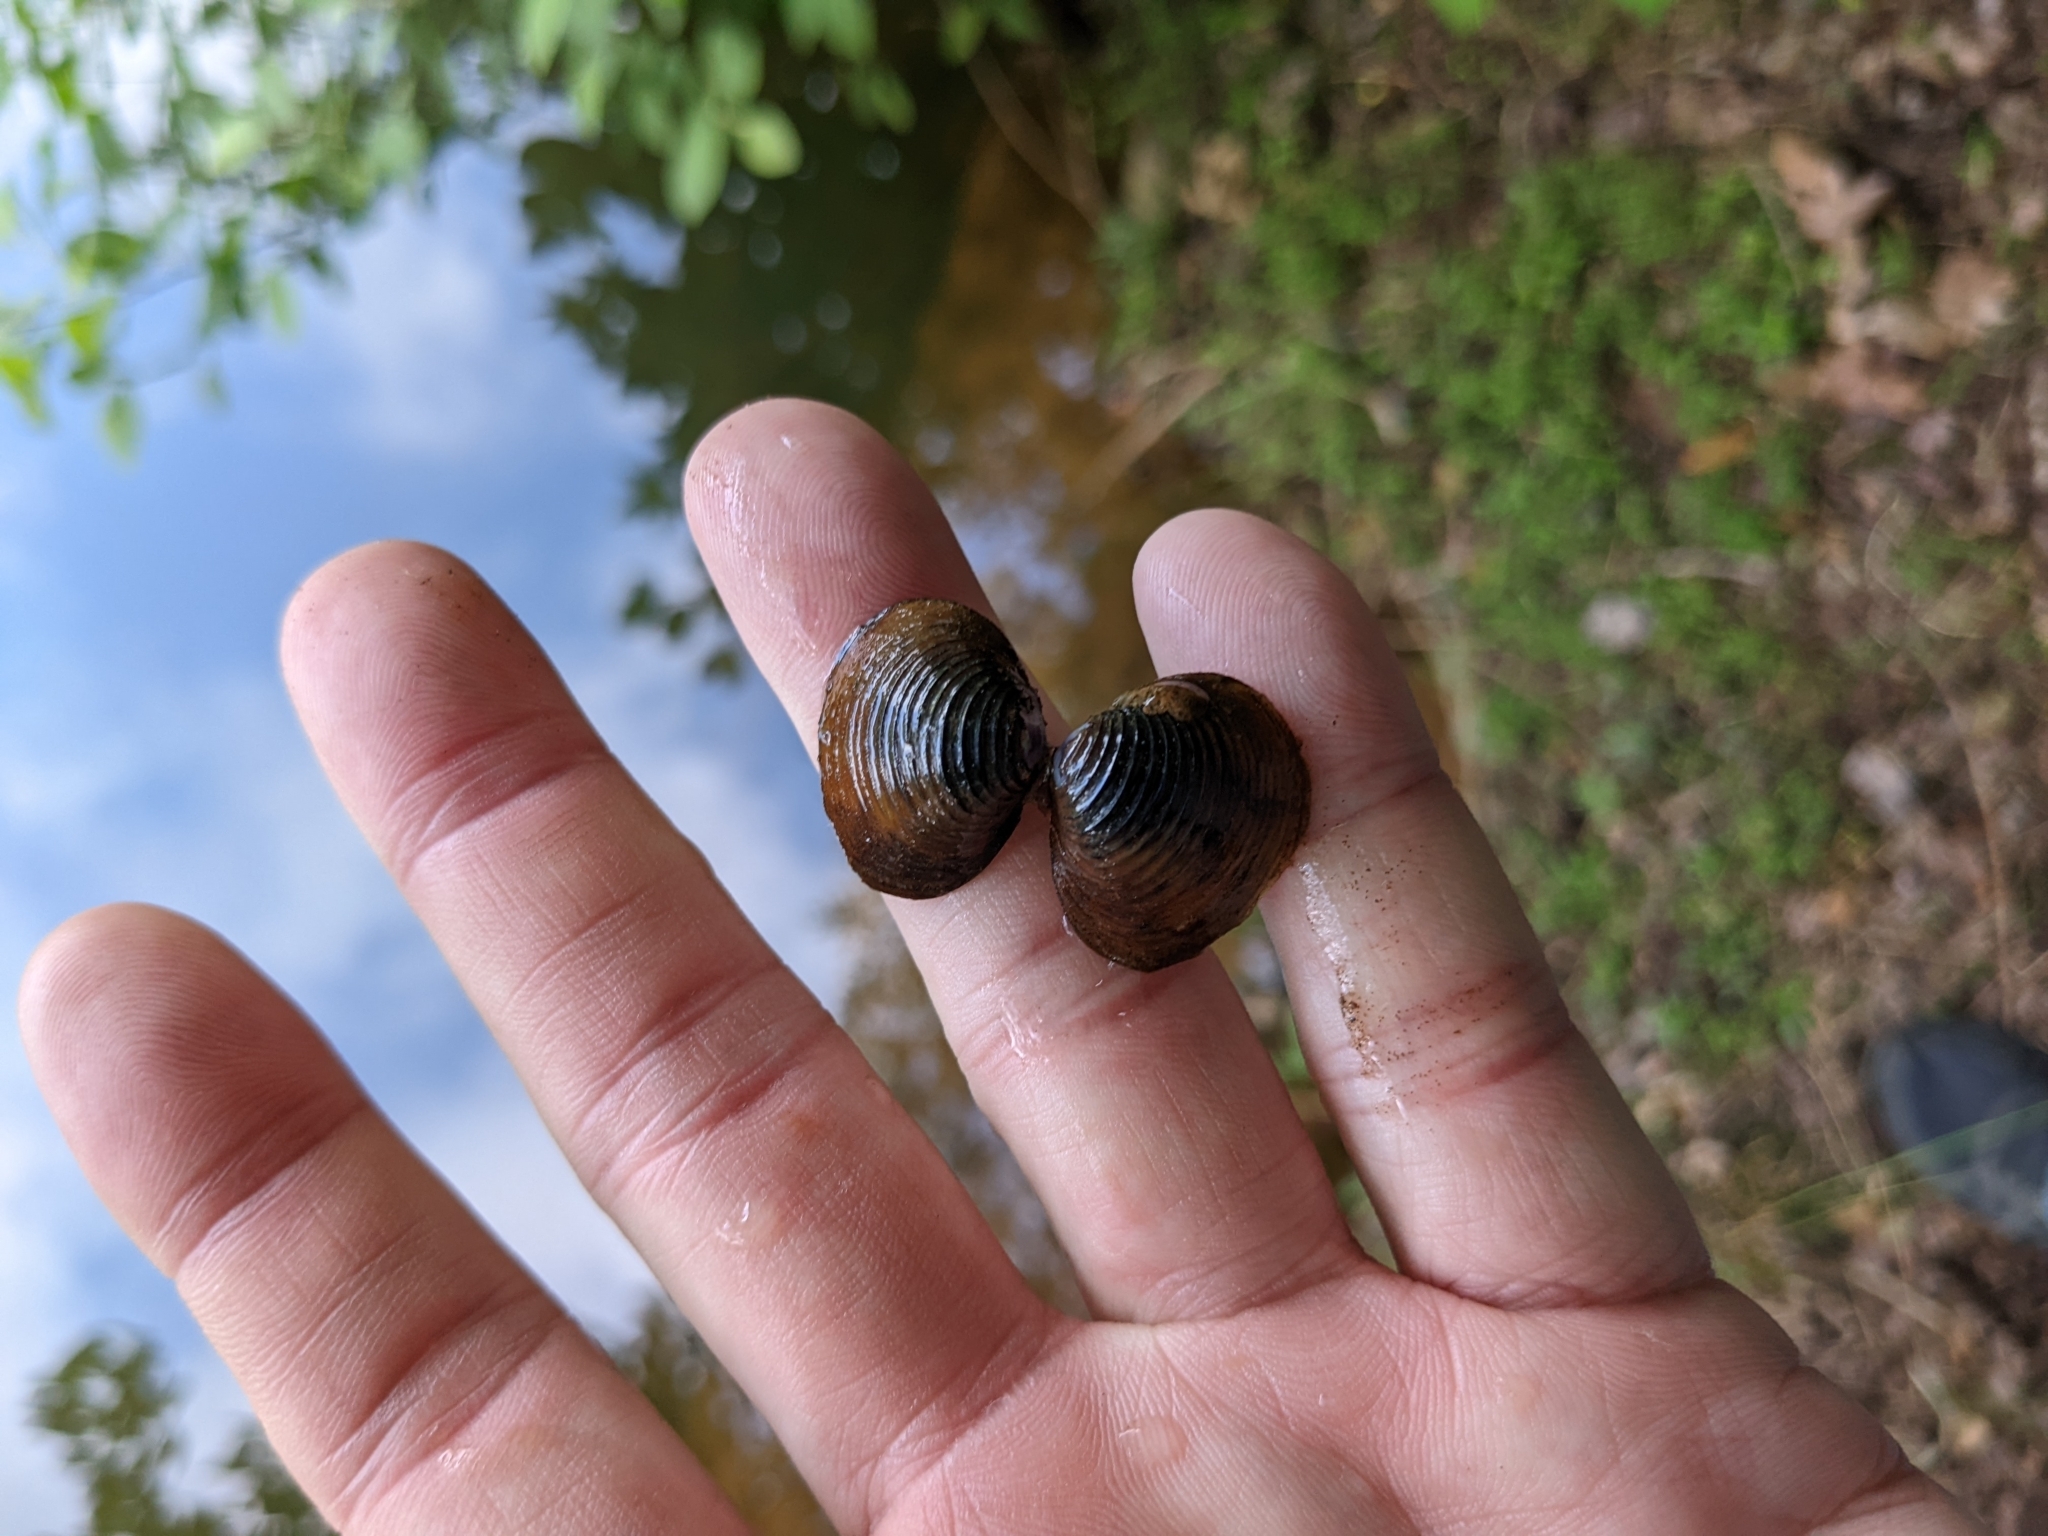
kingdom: Animalia
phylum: Mollusca
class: Bivalvia
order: Venerida
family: Cyrenidae
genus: Corbicula
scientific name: Corbicula fluminea
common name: Asian clam
